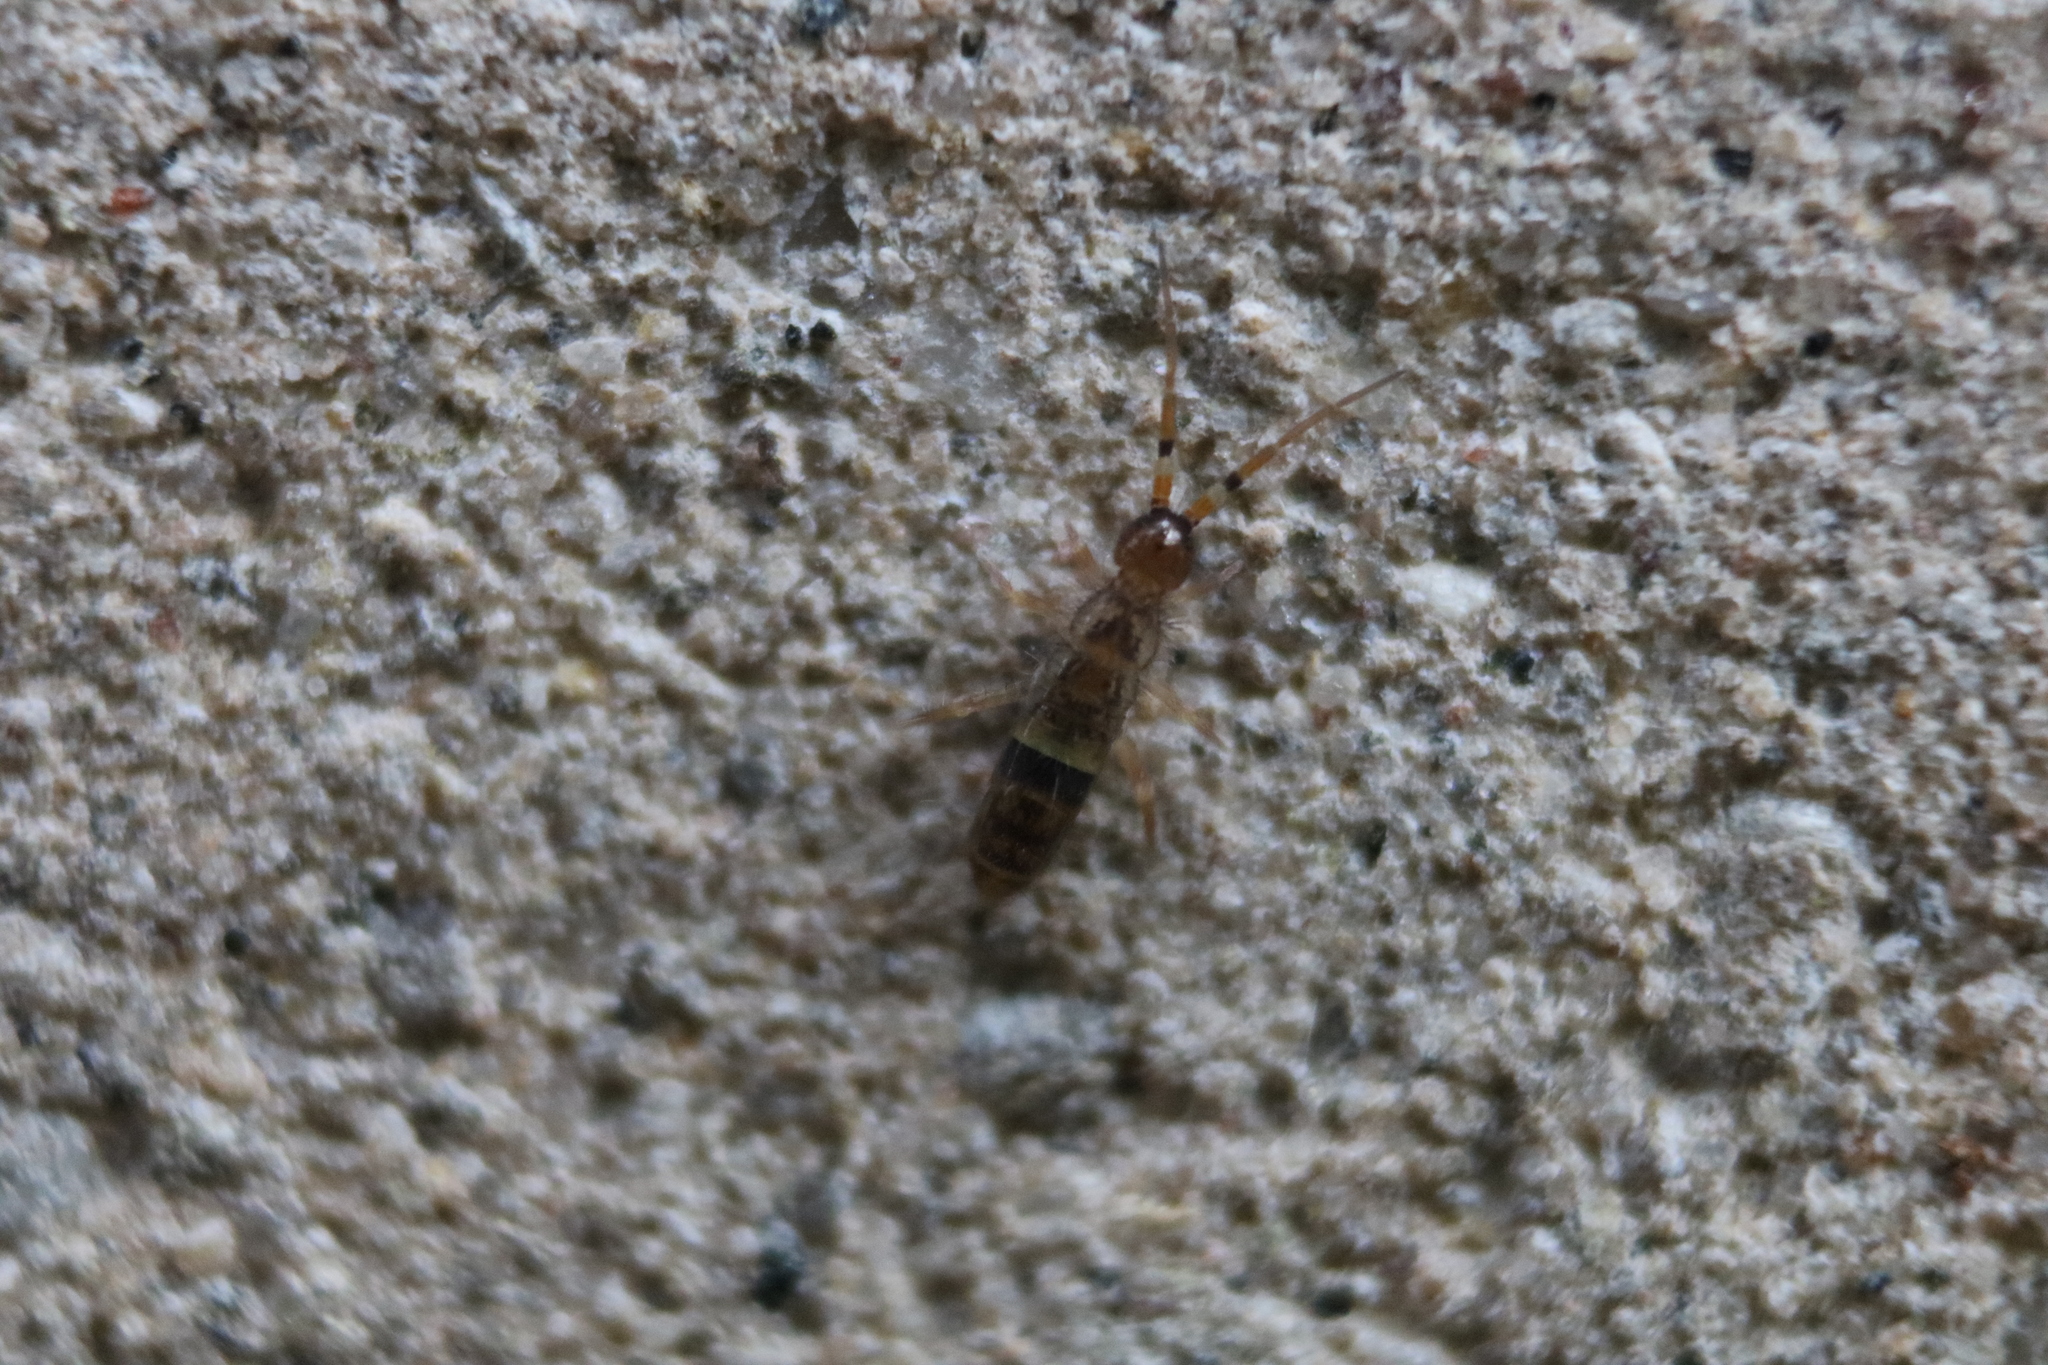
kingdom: Animalia
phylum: Arthropoda
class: Collembola
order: Entomobryomorpha
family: Orchesellidae
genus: Orchesella
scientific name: Orchesella cincta
